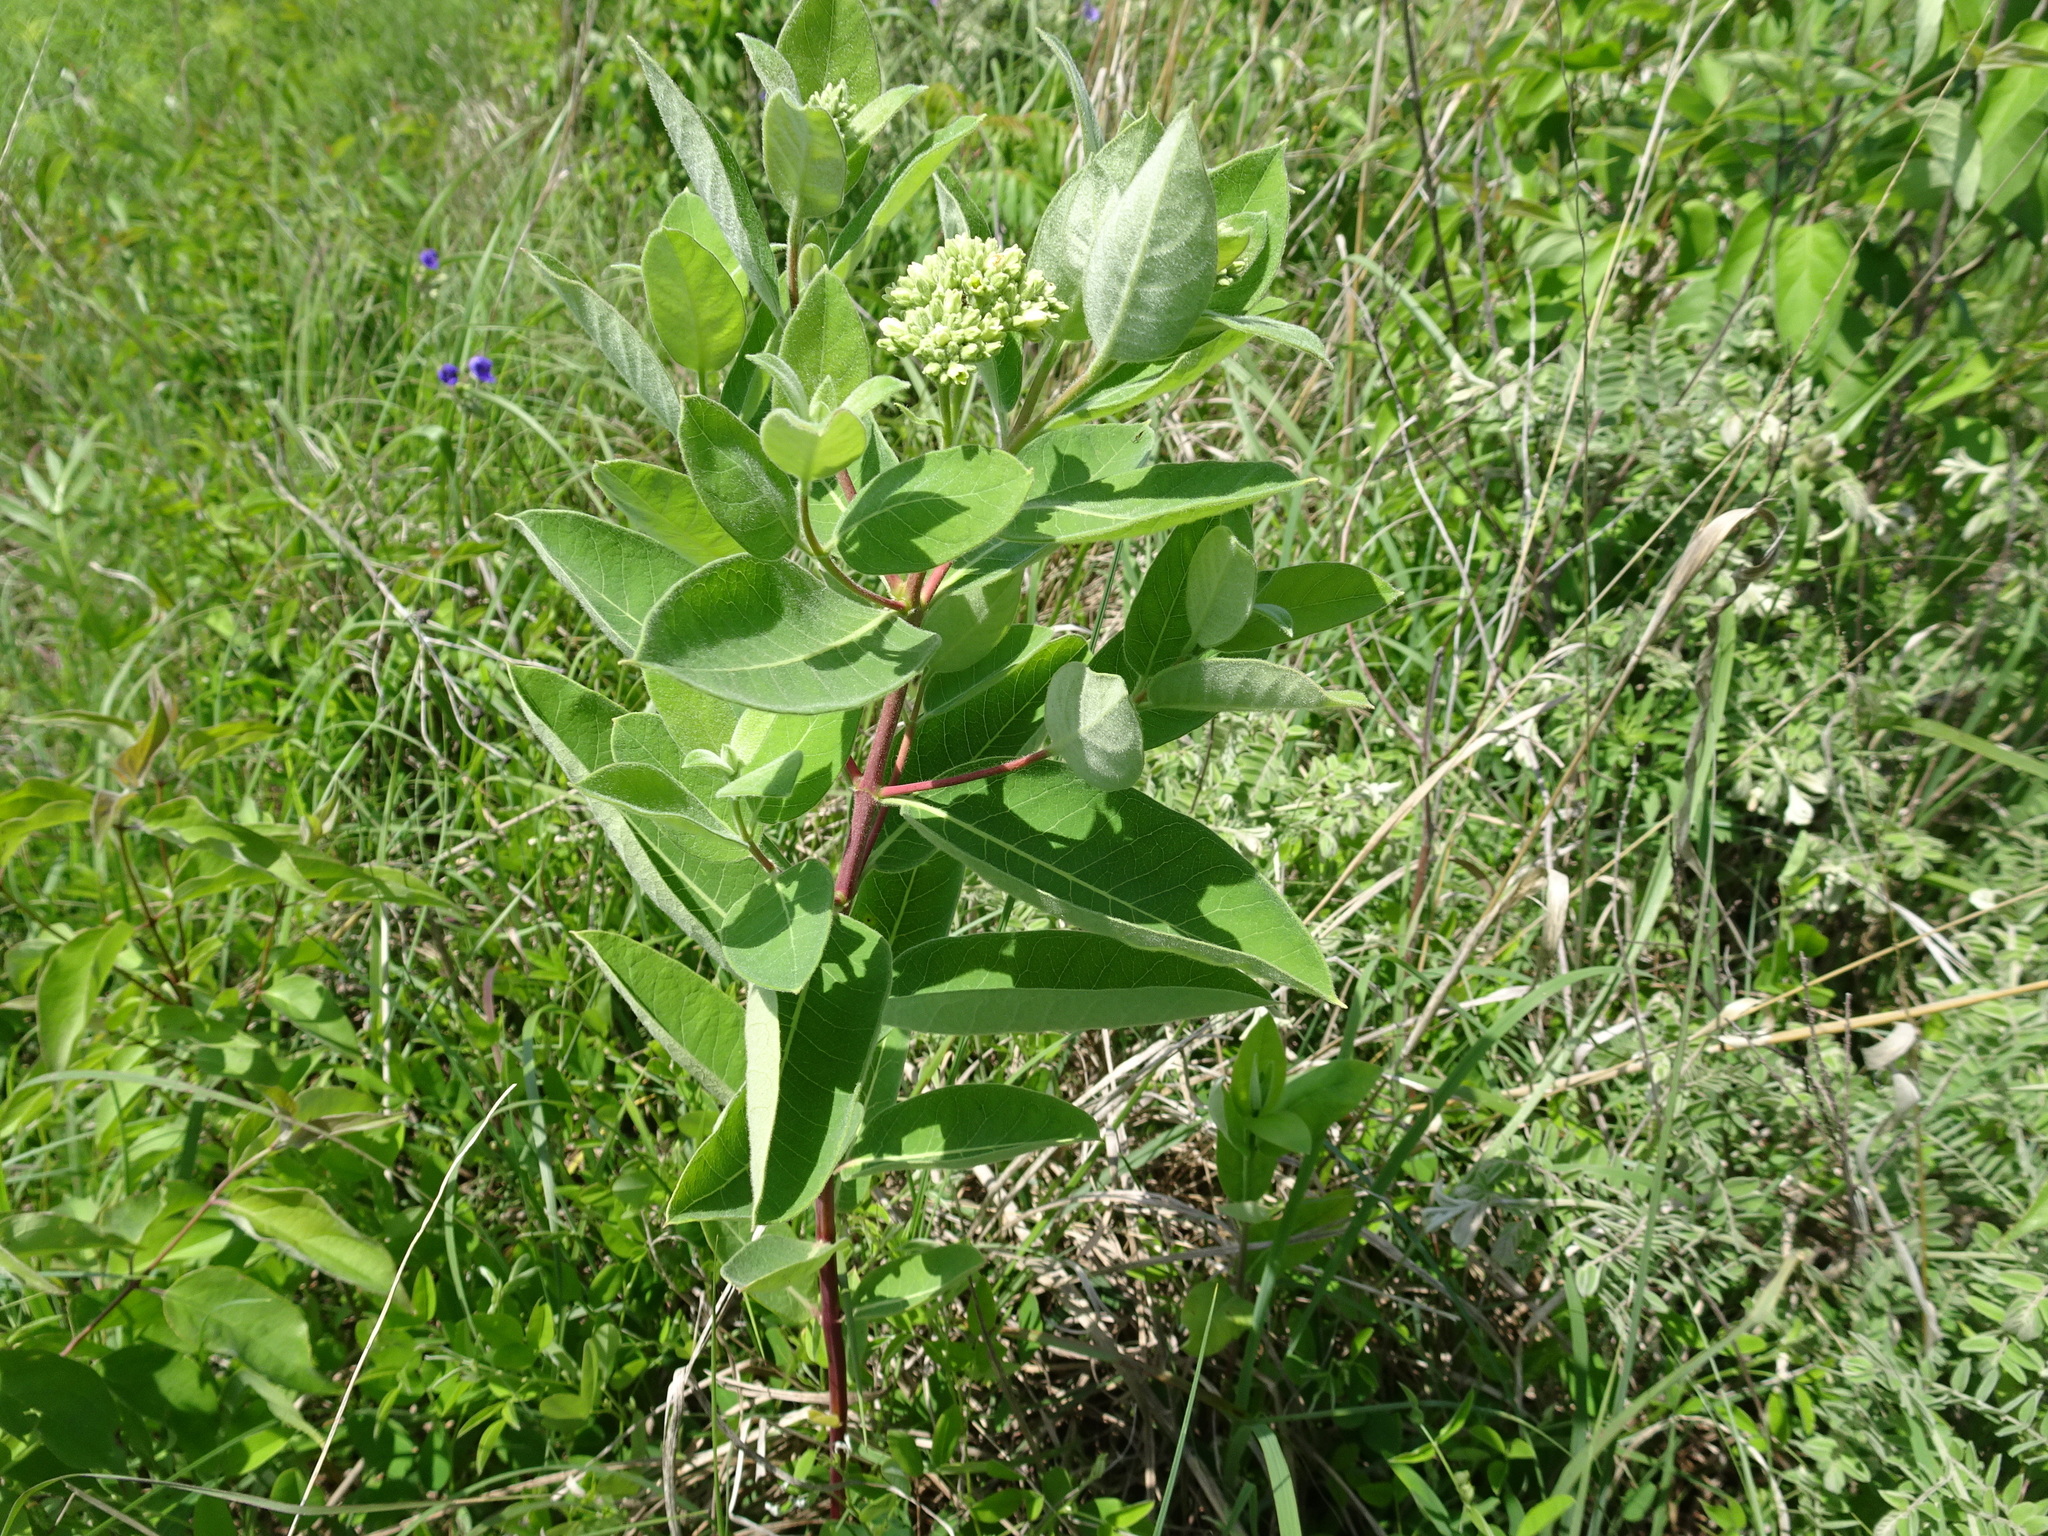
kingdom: Plantae
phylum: Tracheophyta
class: Magnoliopsida
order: Gentianales
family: Apocynaceae
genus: Apocynum
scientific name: Apocynum cannabinum
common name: Hemp dogbane
